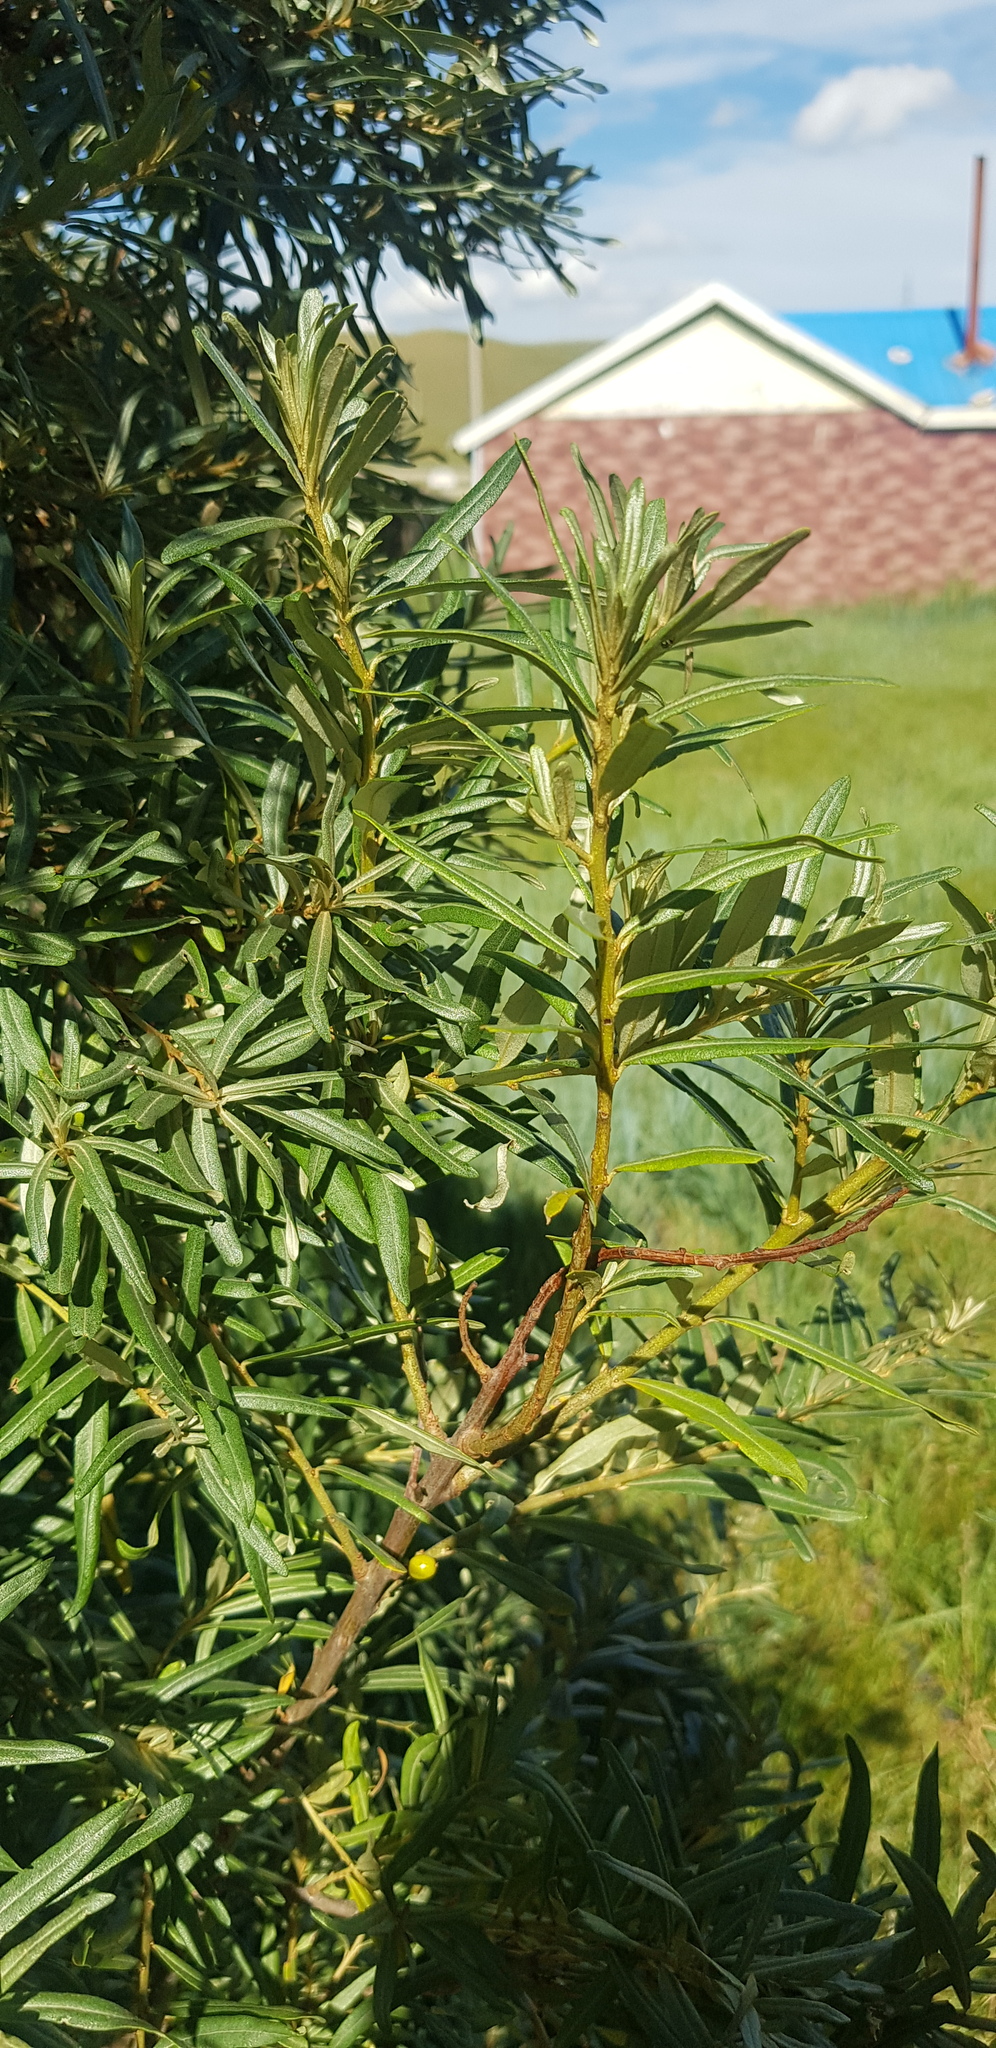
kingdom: Plantae
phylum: Tracheophyta
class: Magnoliopsida
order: Rosales
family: Elaeagnaceae
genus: Hippophae
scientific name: Hippophae rhamnoides
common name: Sea-buckthorn
